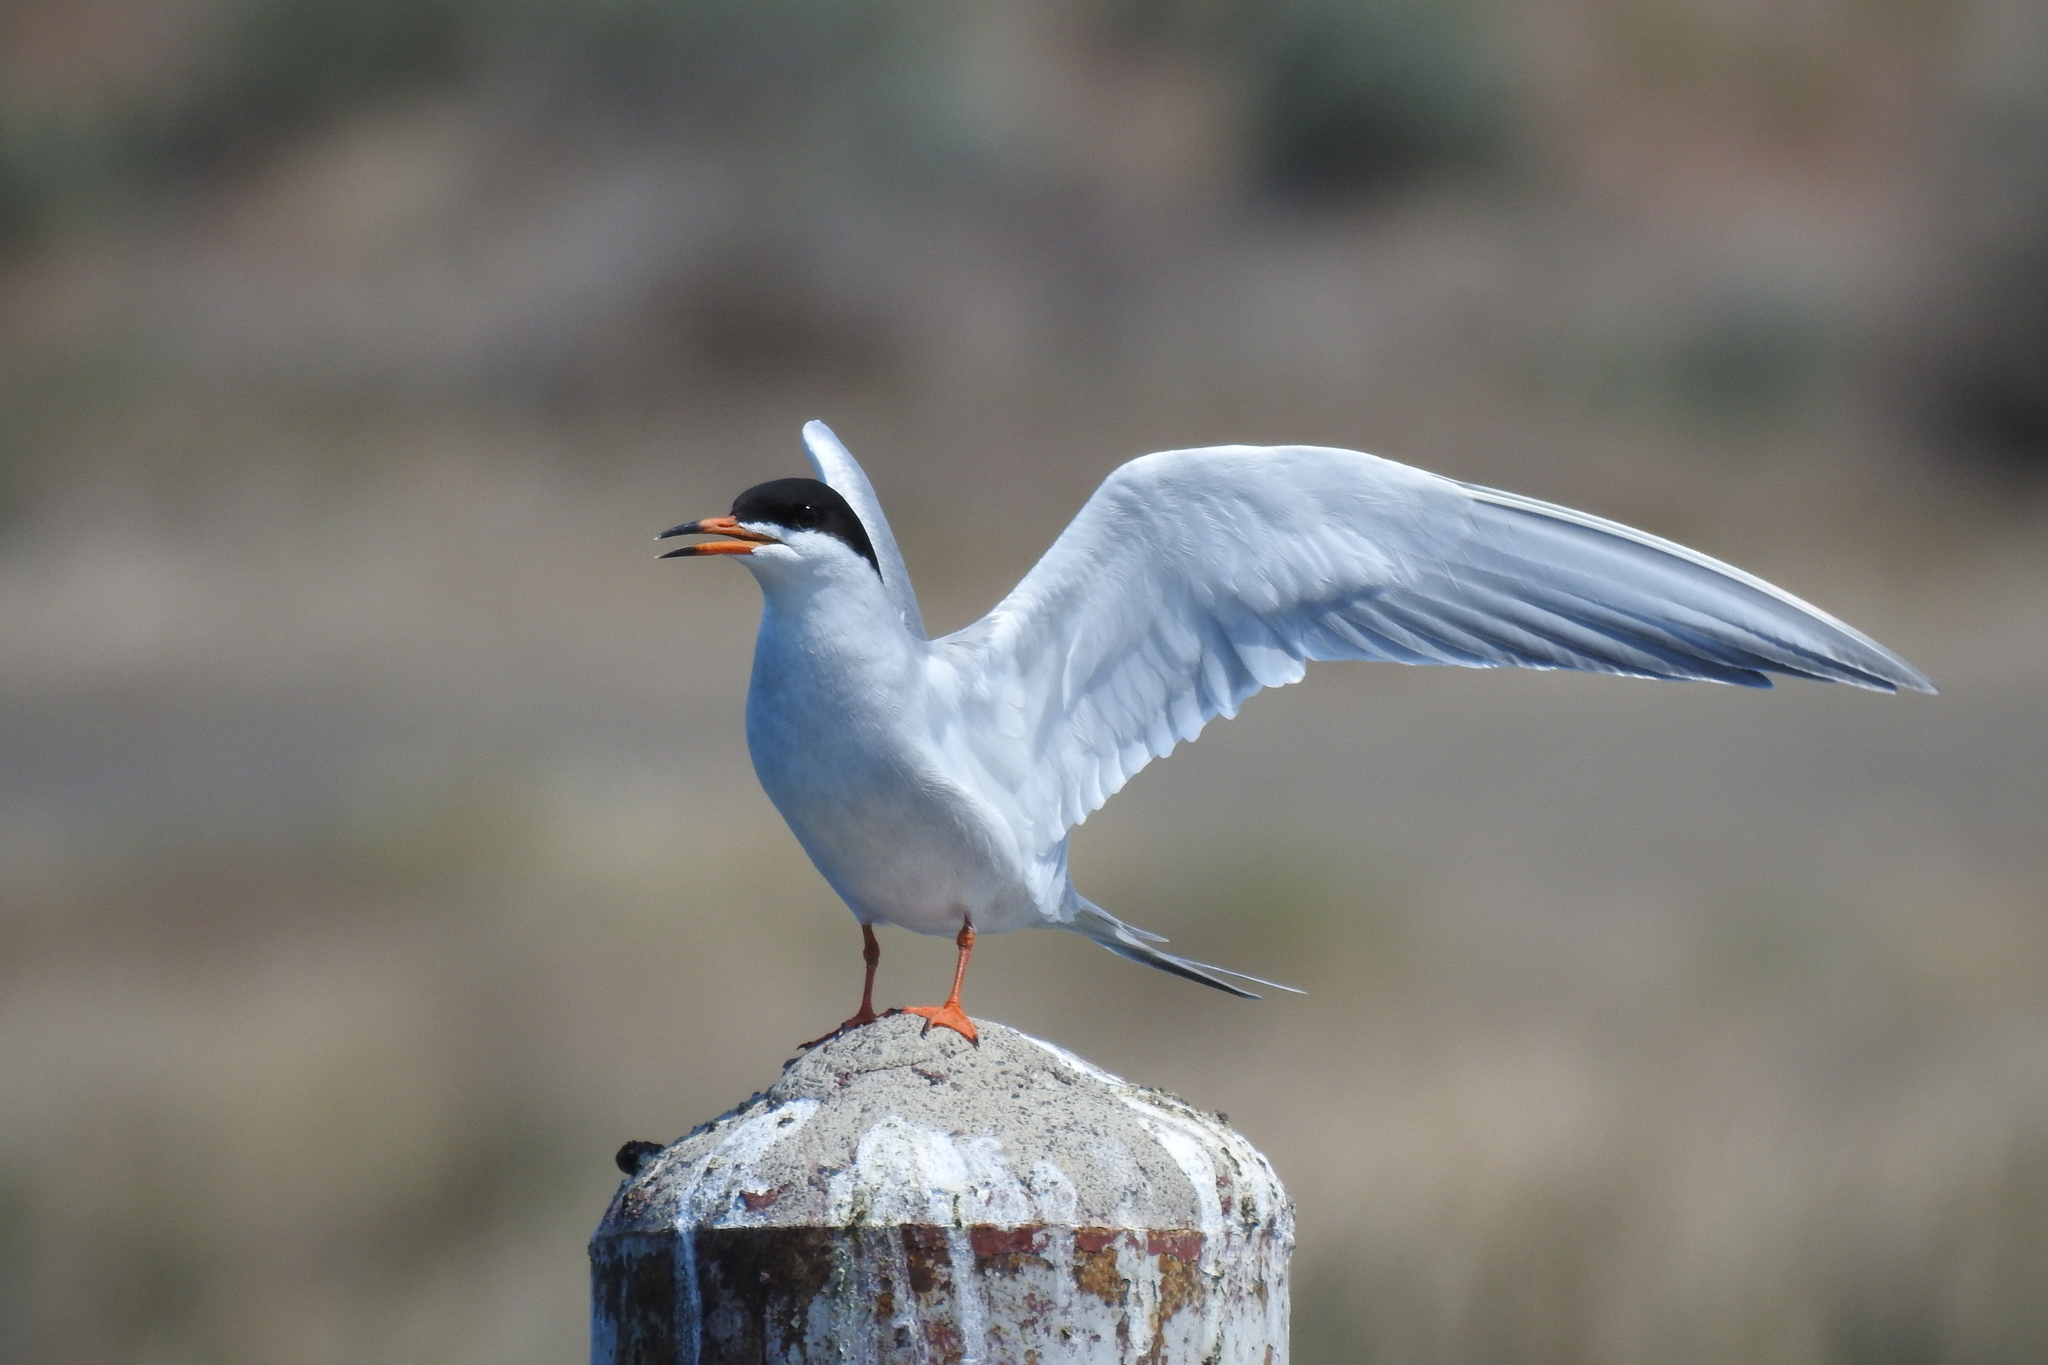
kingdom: Animalia
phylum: Chordata
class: Aves
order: Charadriiformes
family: Laridae
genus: Sterna
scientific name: Sterna forsteri
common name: Forster's tern
